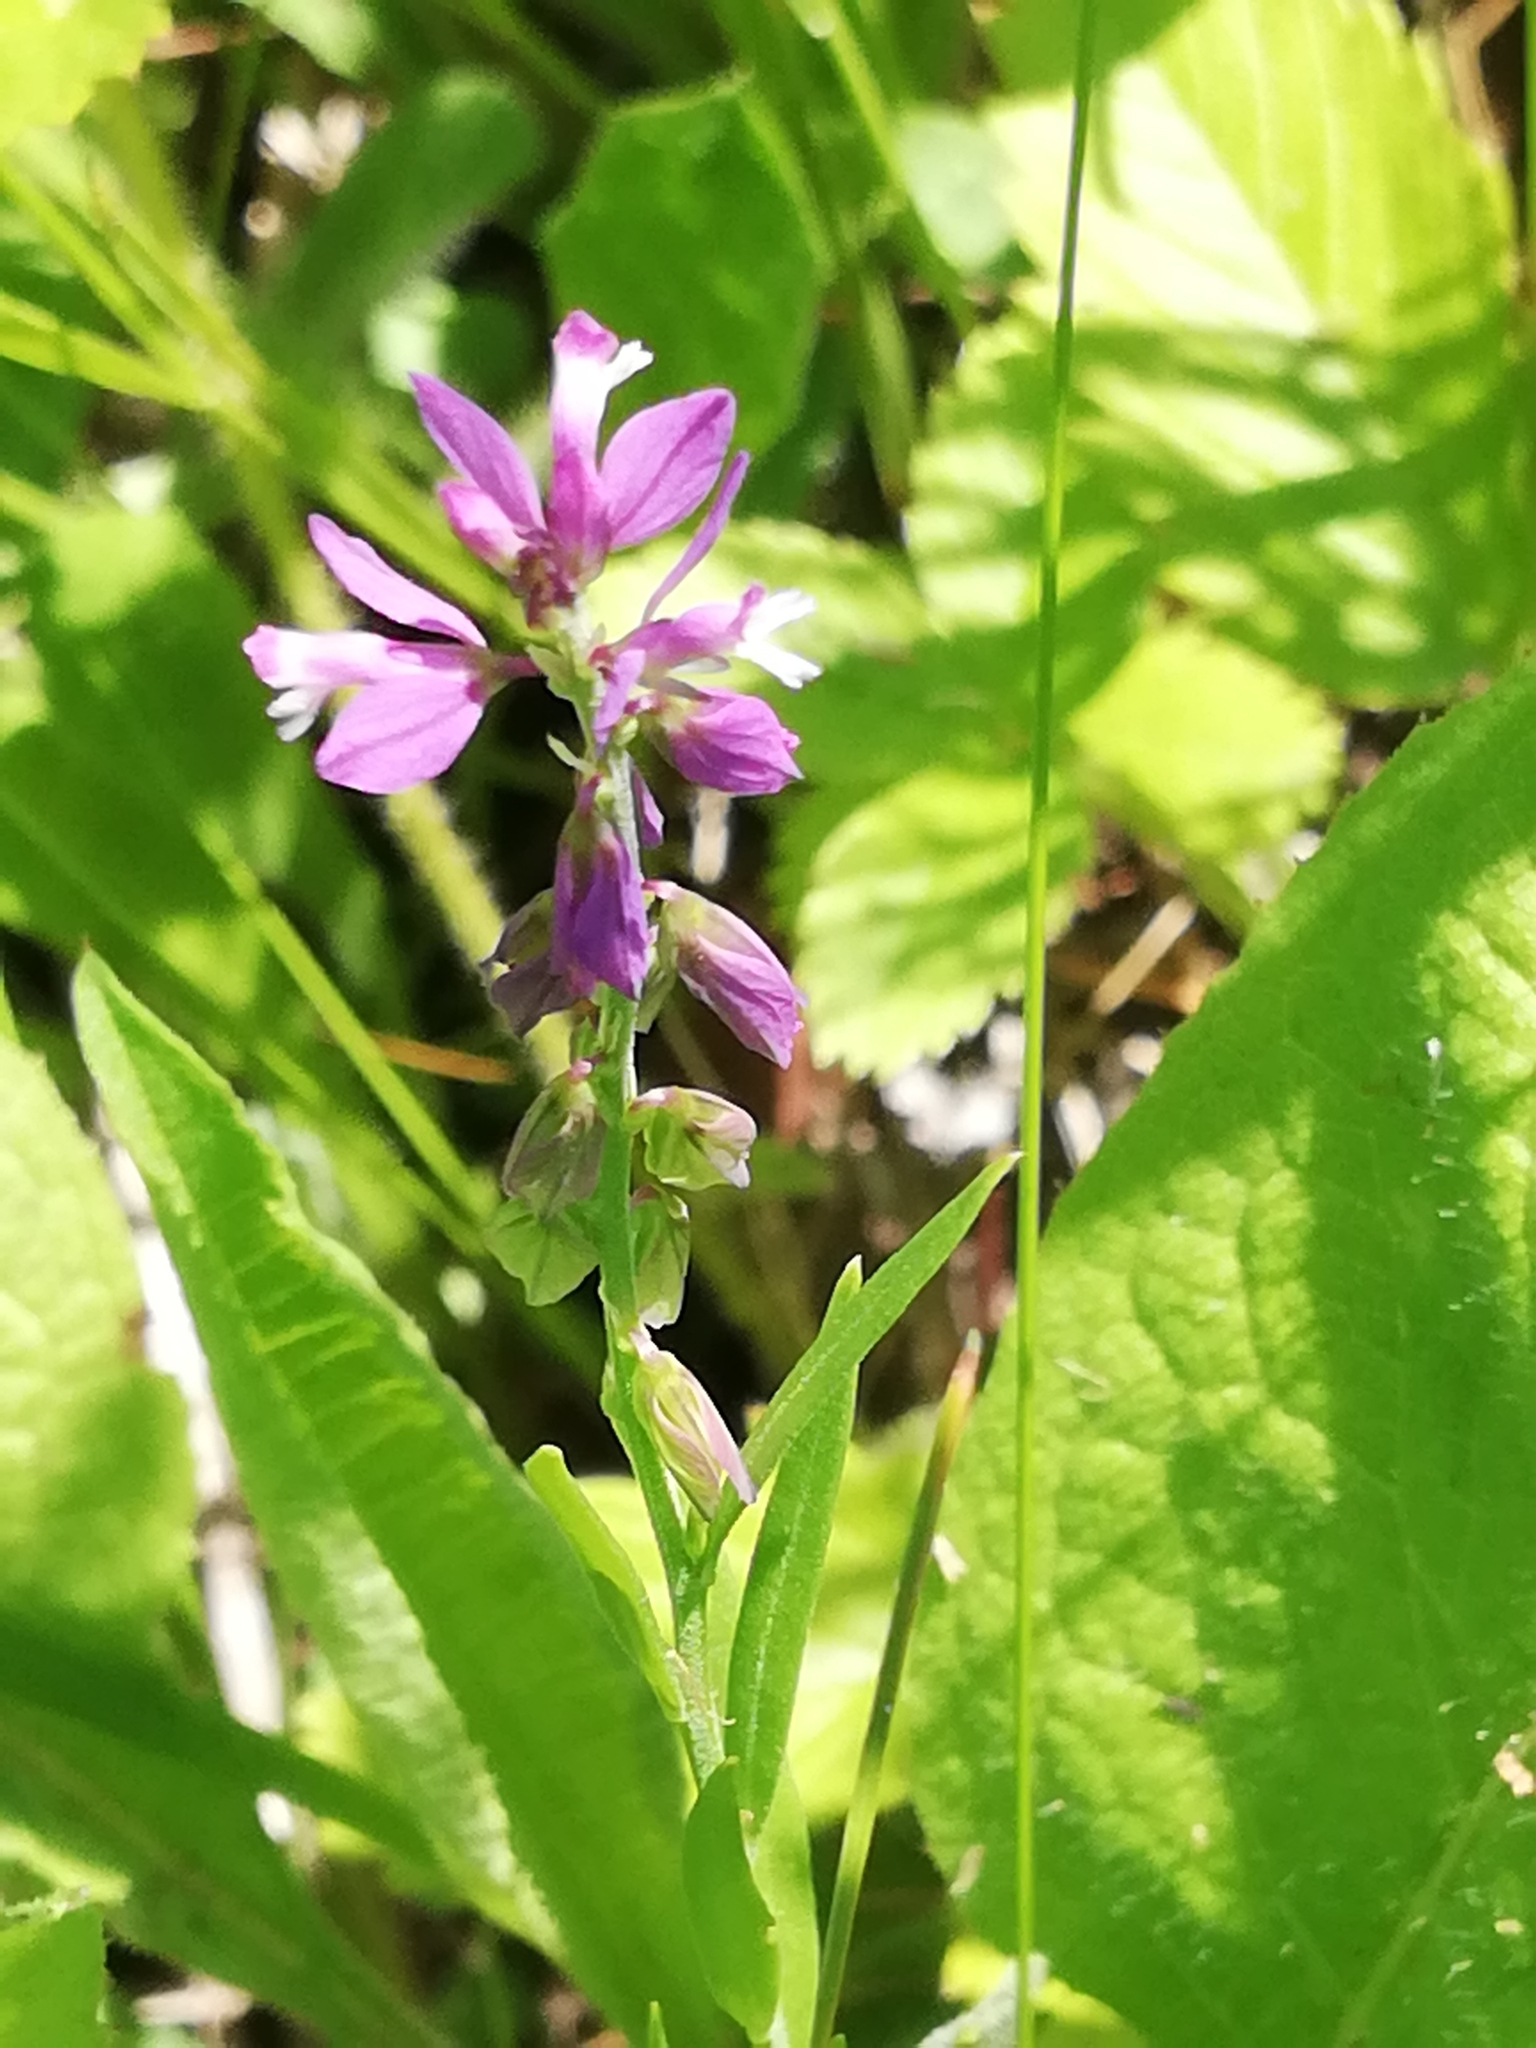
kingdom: Plantae
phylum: Tracheophyta
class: Magnoliopsida
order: Fabales
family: Polygalaceae
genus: Polygala
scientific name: Polygala comosa
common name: Tufted milkwort
